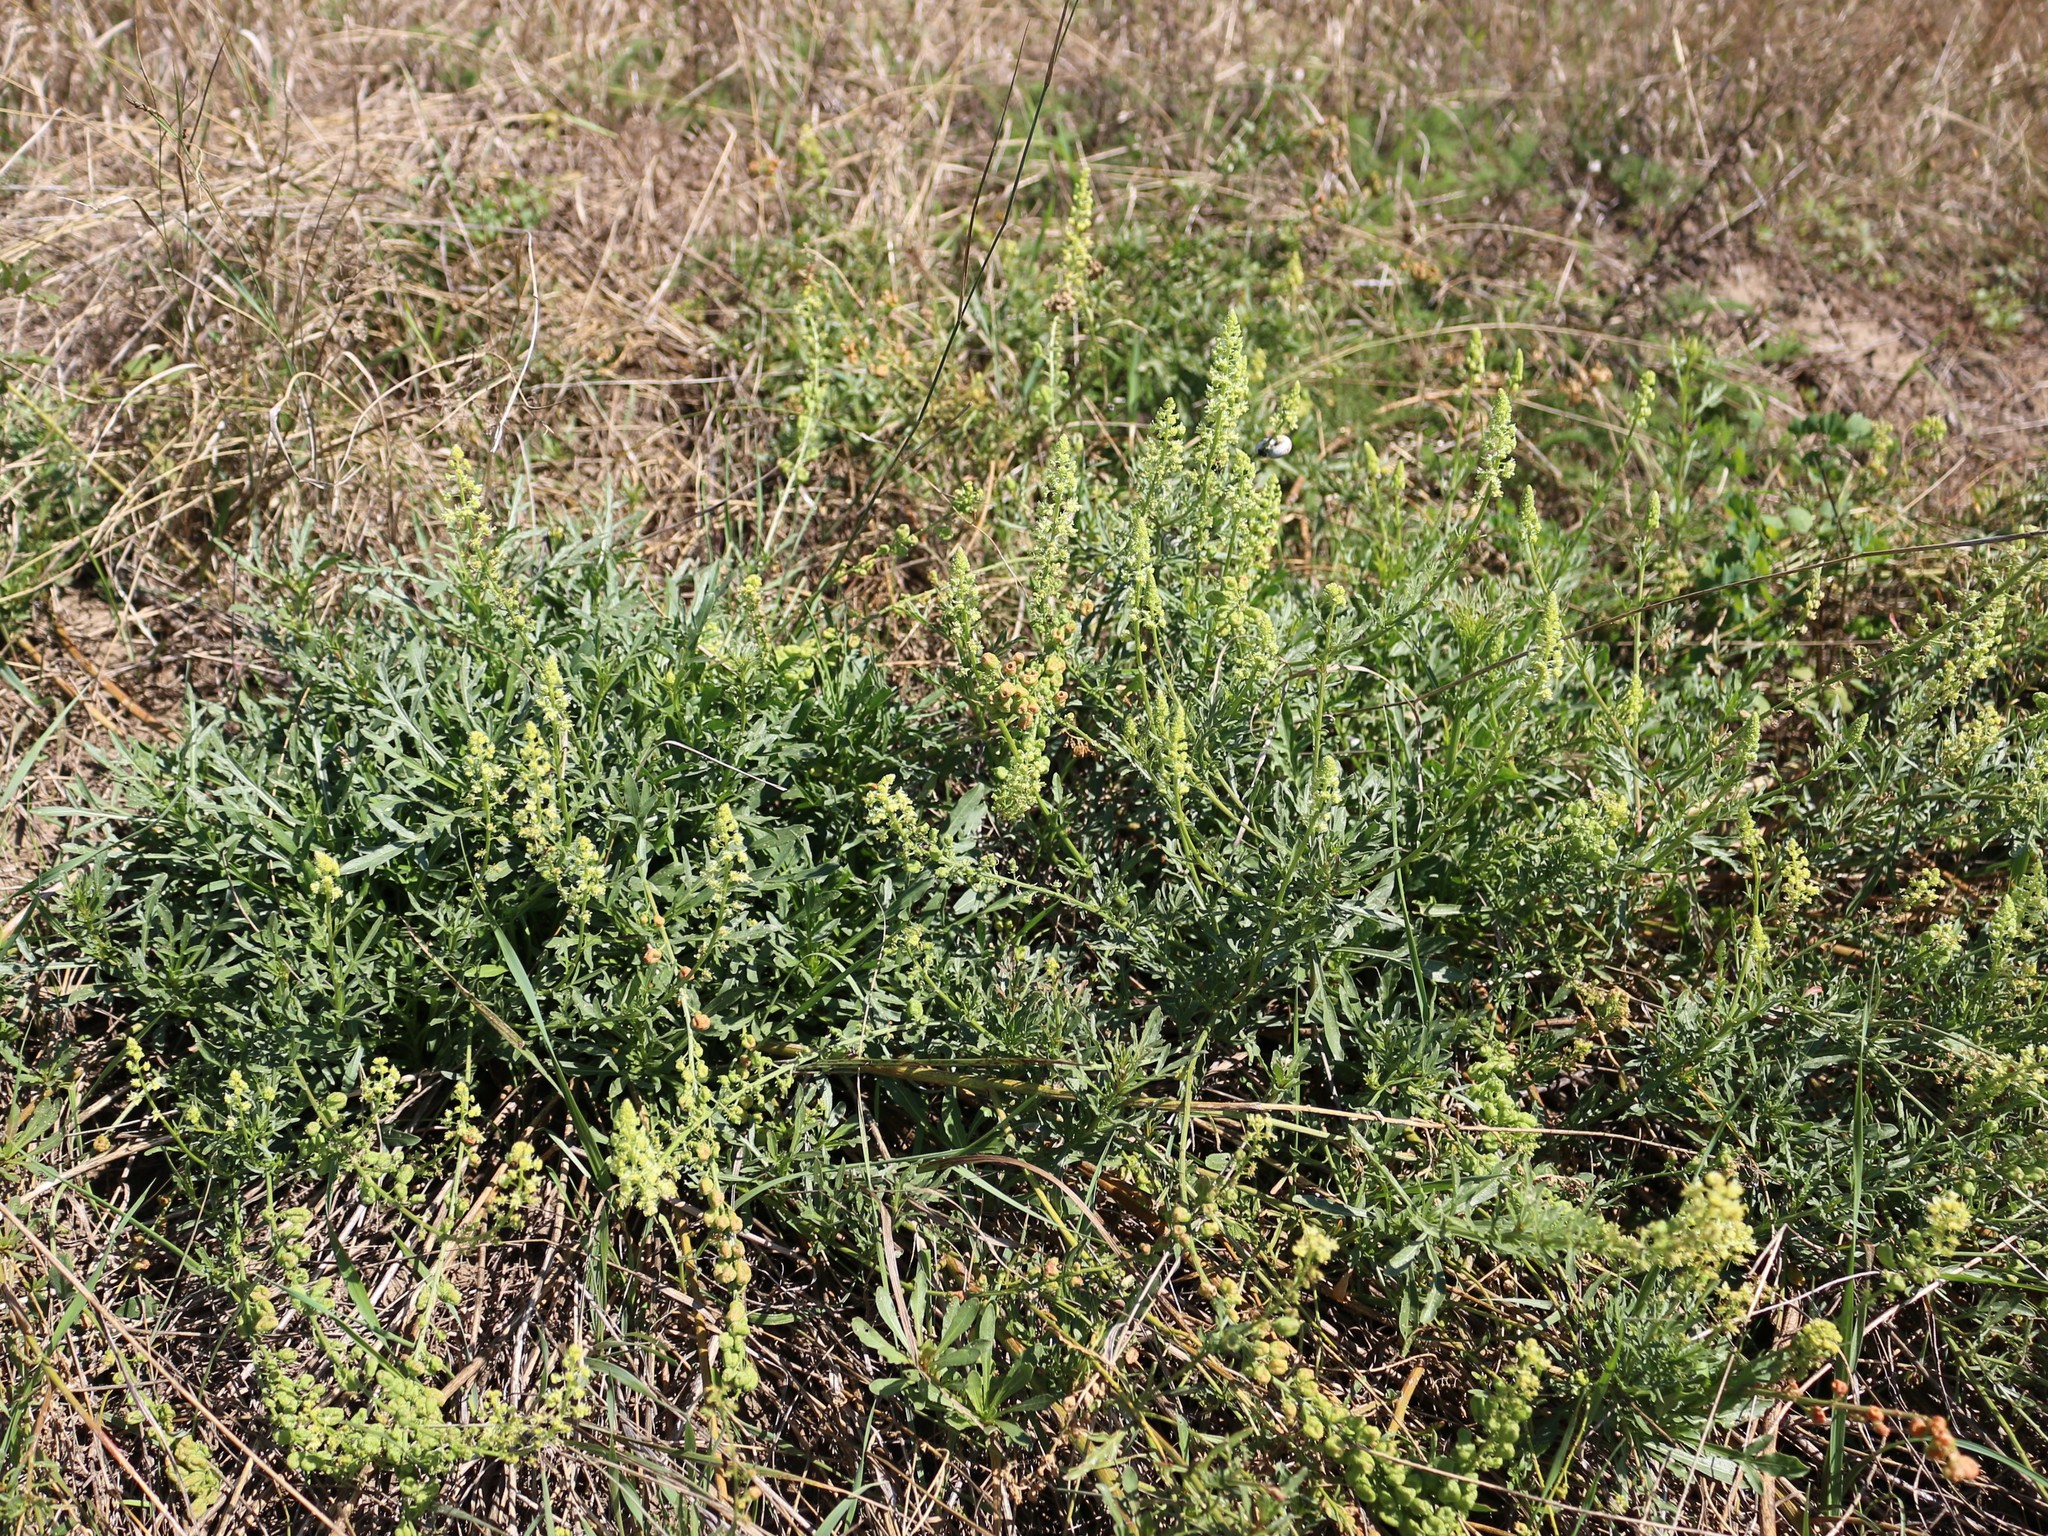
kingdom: Plantae
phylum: Tracheophyta
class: Magnoliopsida
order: Brassicales
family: Resedaceae
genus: Reseda
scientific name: Reseda lutea
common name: Wild mignonette
